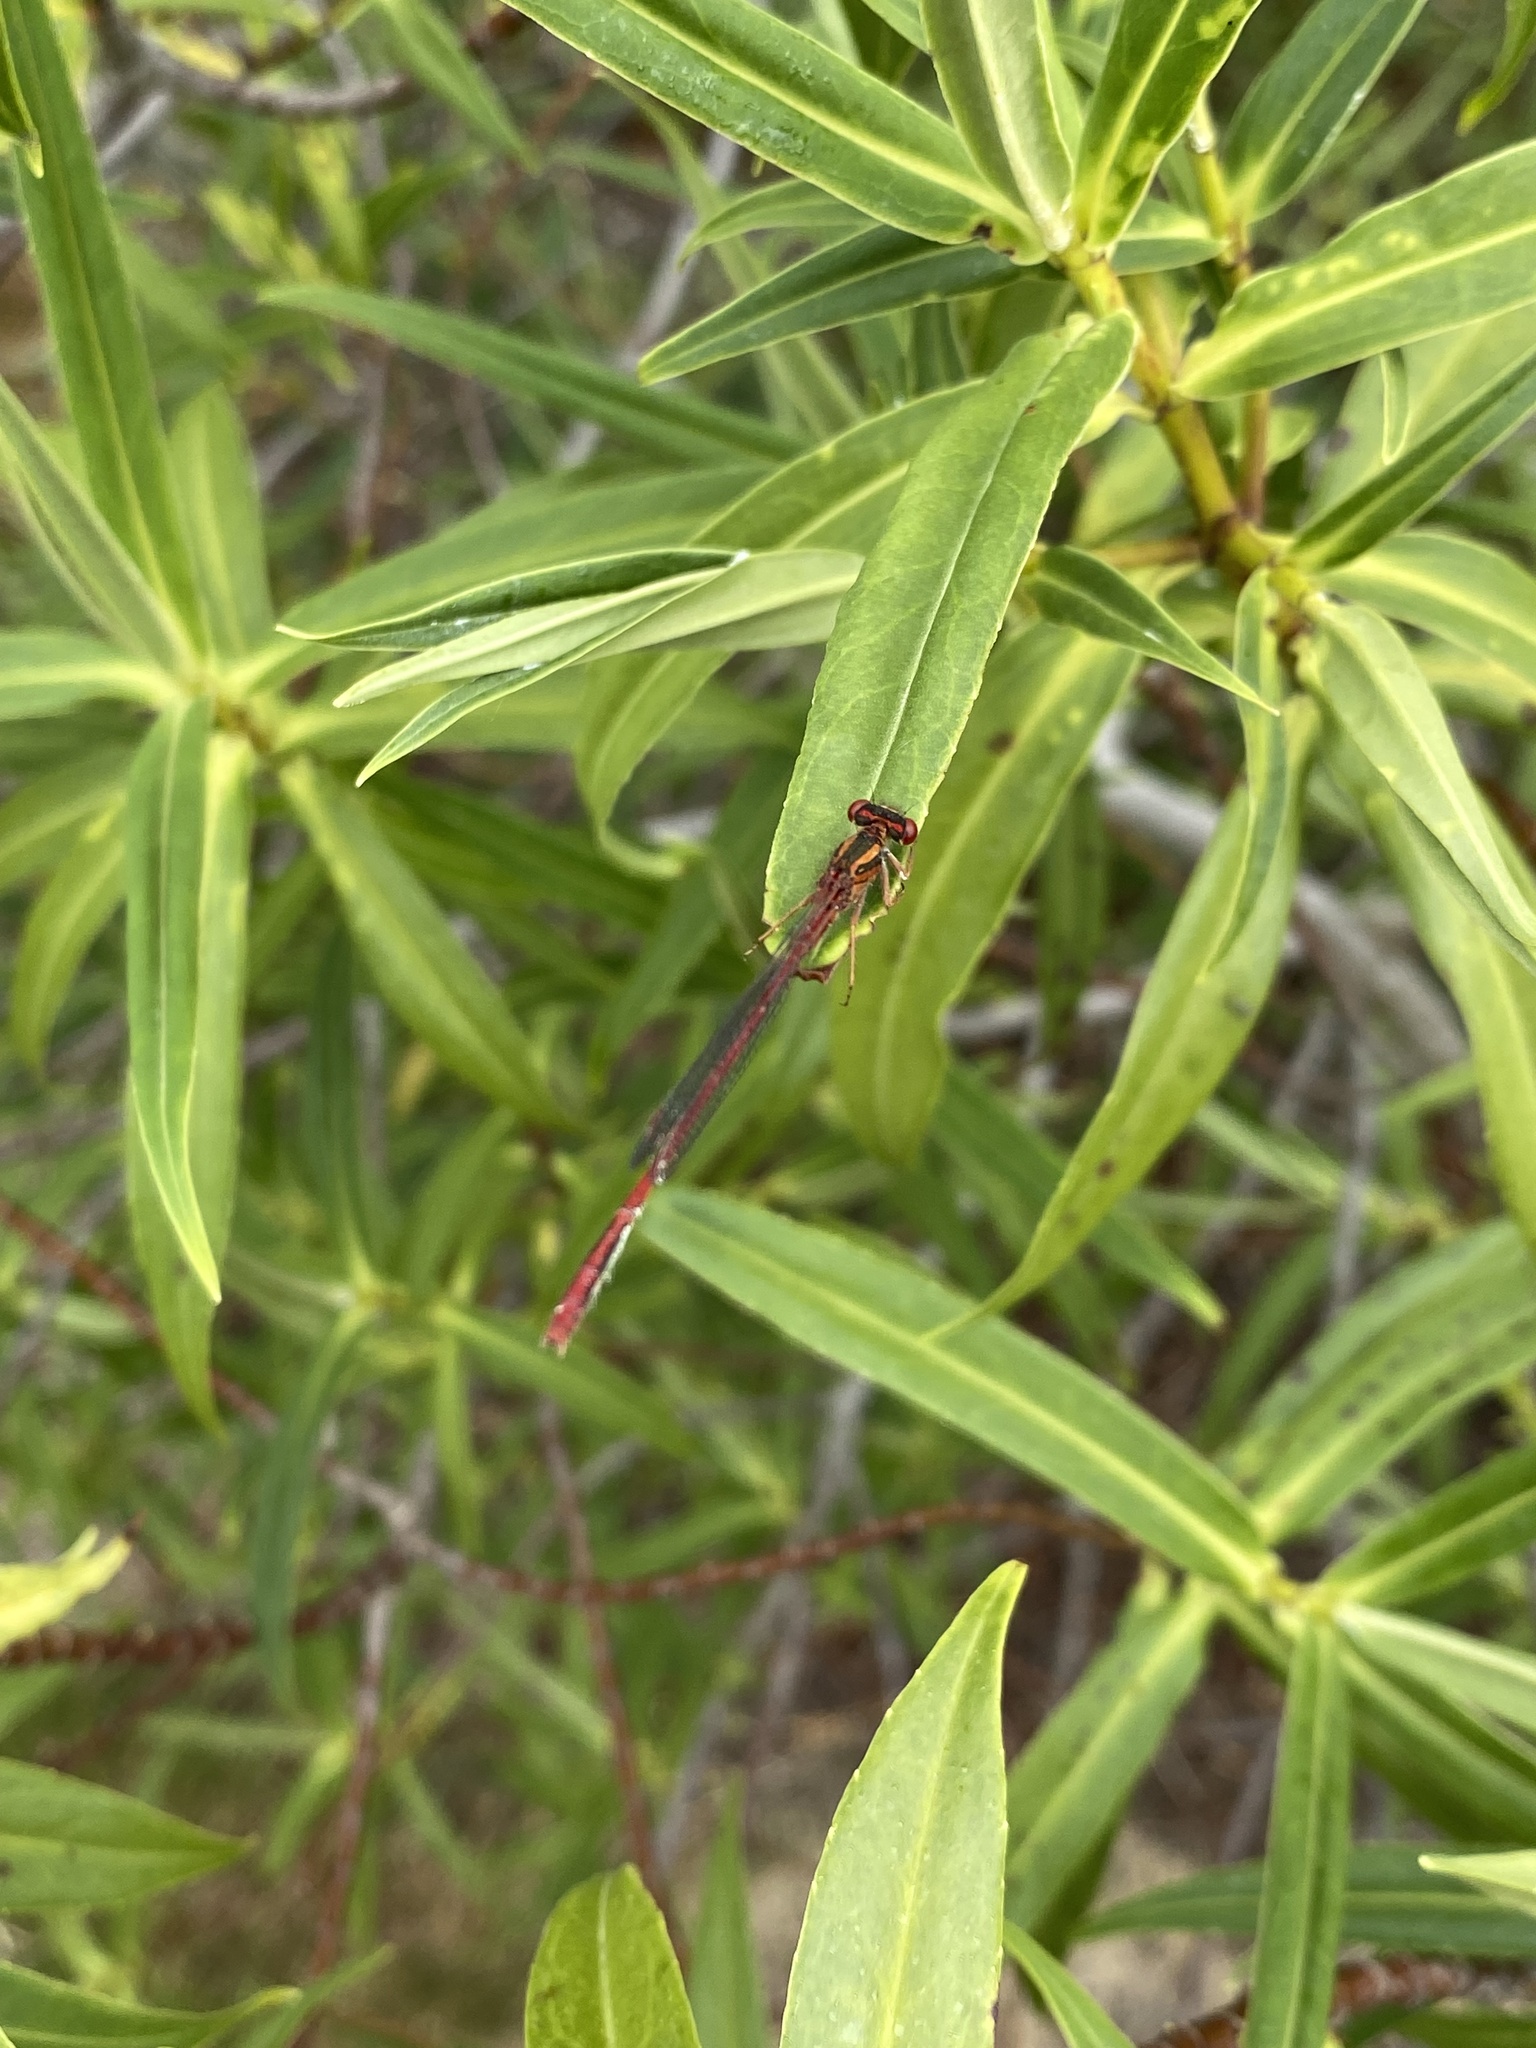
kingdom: Animalia
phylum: Arthropoda
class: Insecta
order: Odonata
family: Coenagrionidae
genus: Xanthocnemis
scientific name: Xanthocnemis zealandica
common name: Common redcoat damselfly
